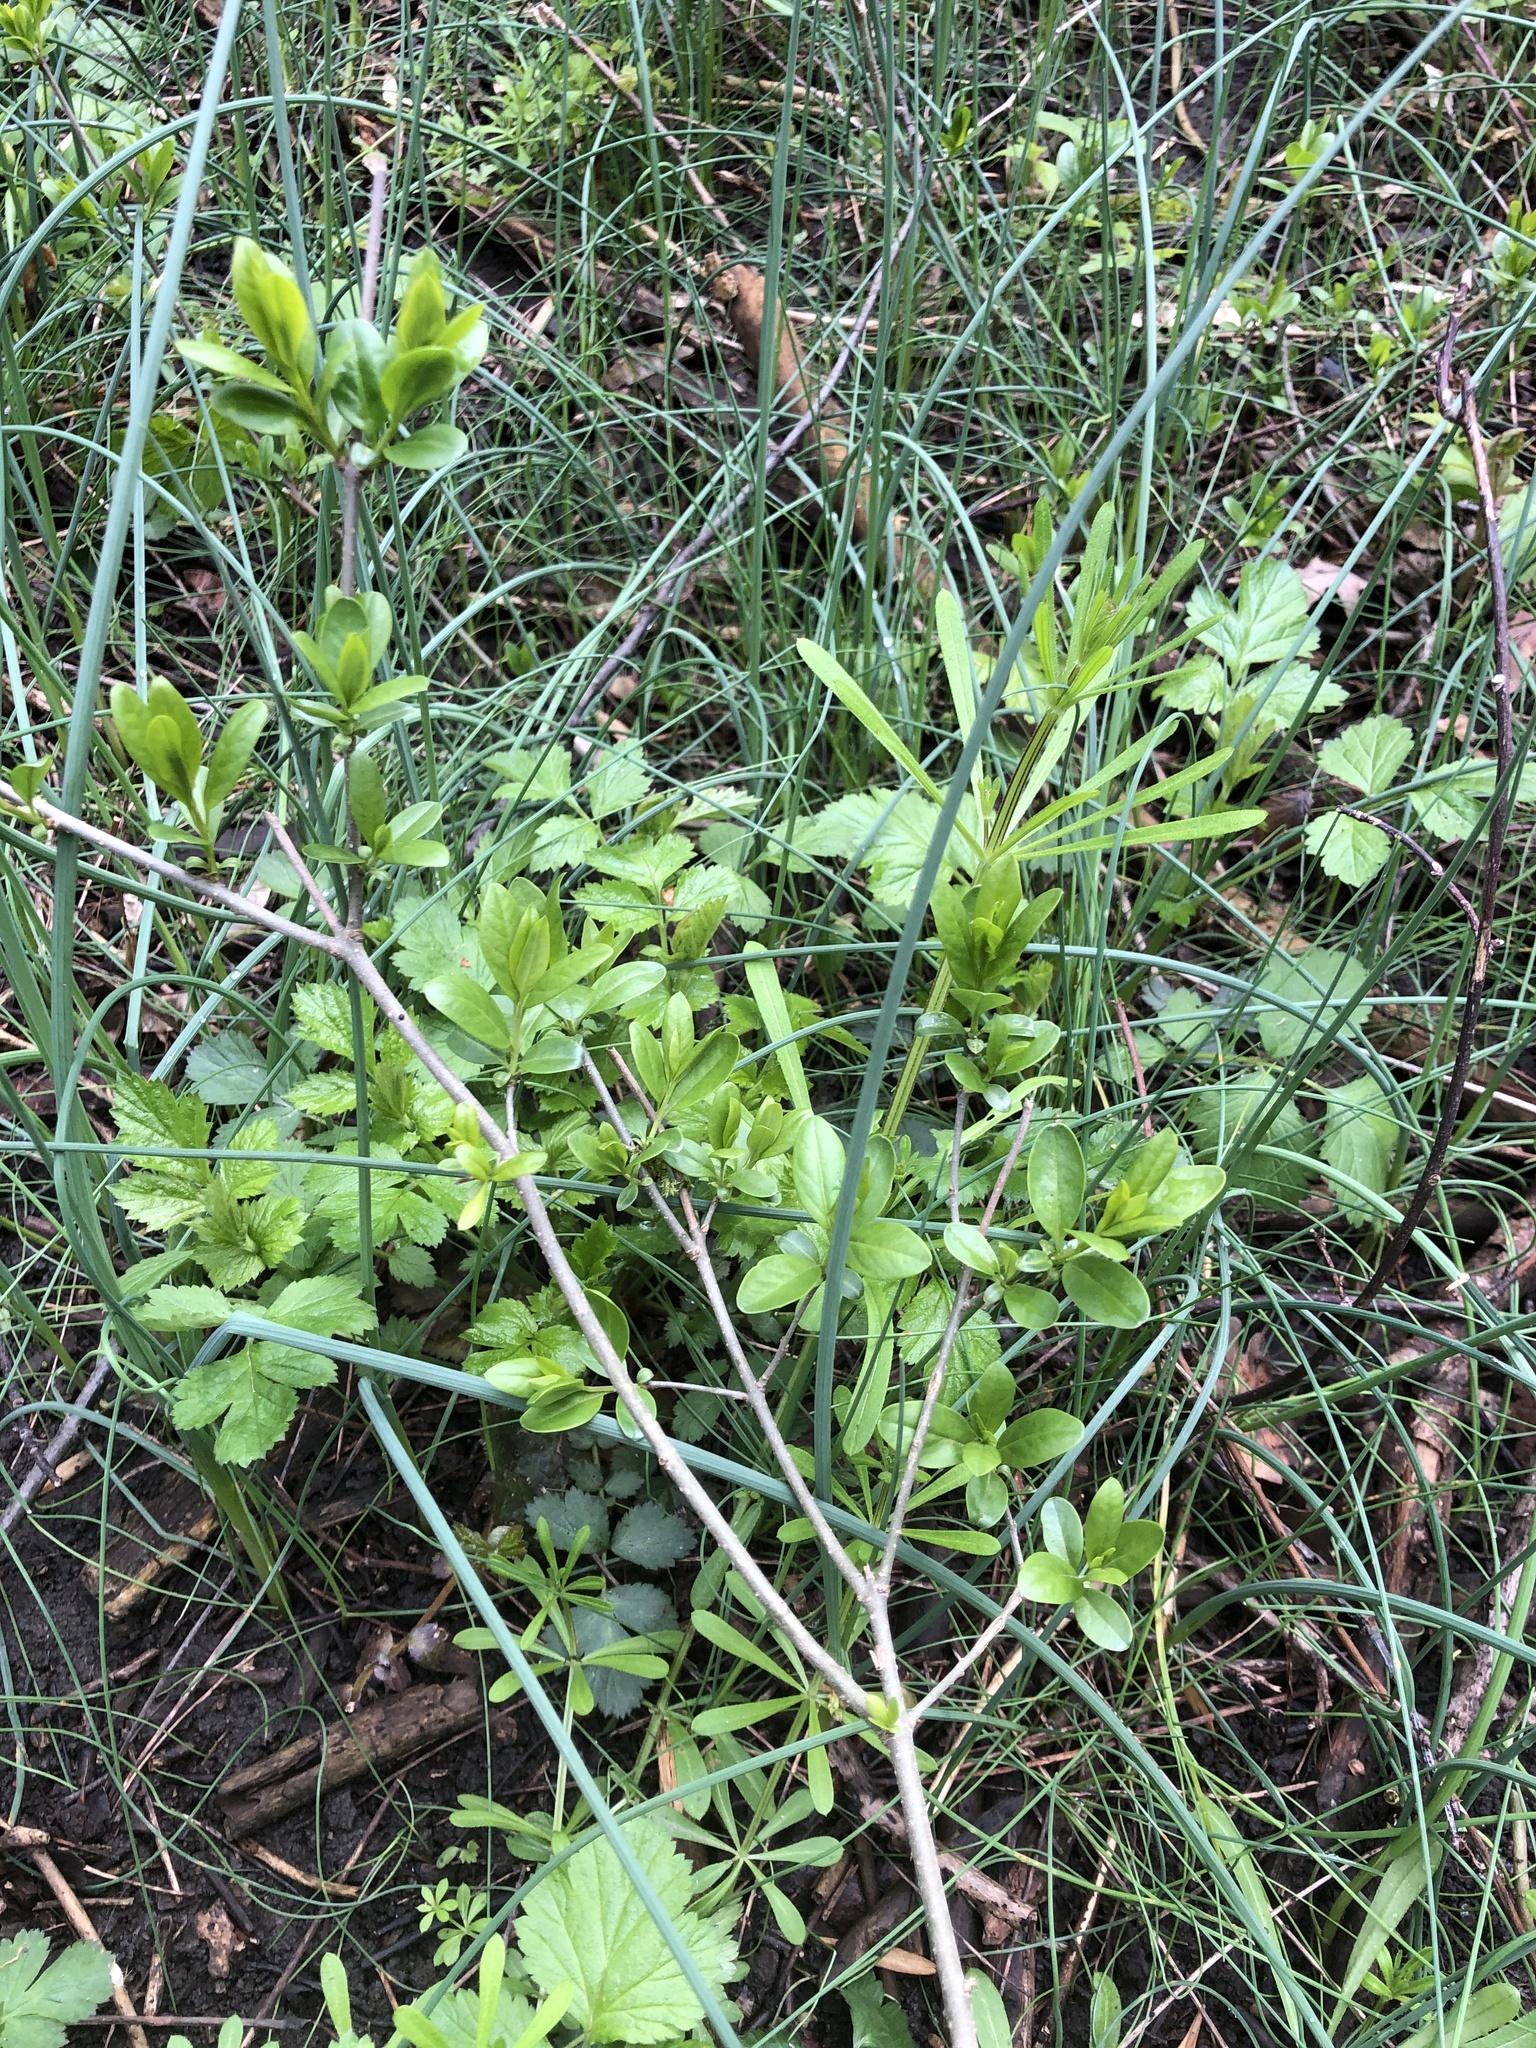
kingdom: Plantae
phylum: Tracheophyta
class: Magnoliopsida
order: Lamiales
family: Oleaceae
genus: Ligustrum
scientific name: Ligustrum vulgare
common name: Wild privet
